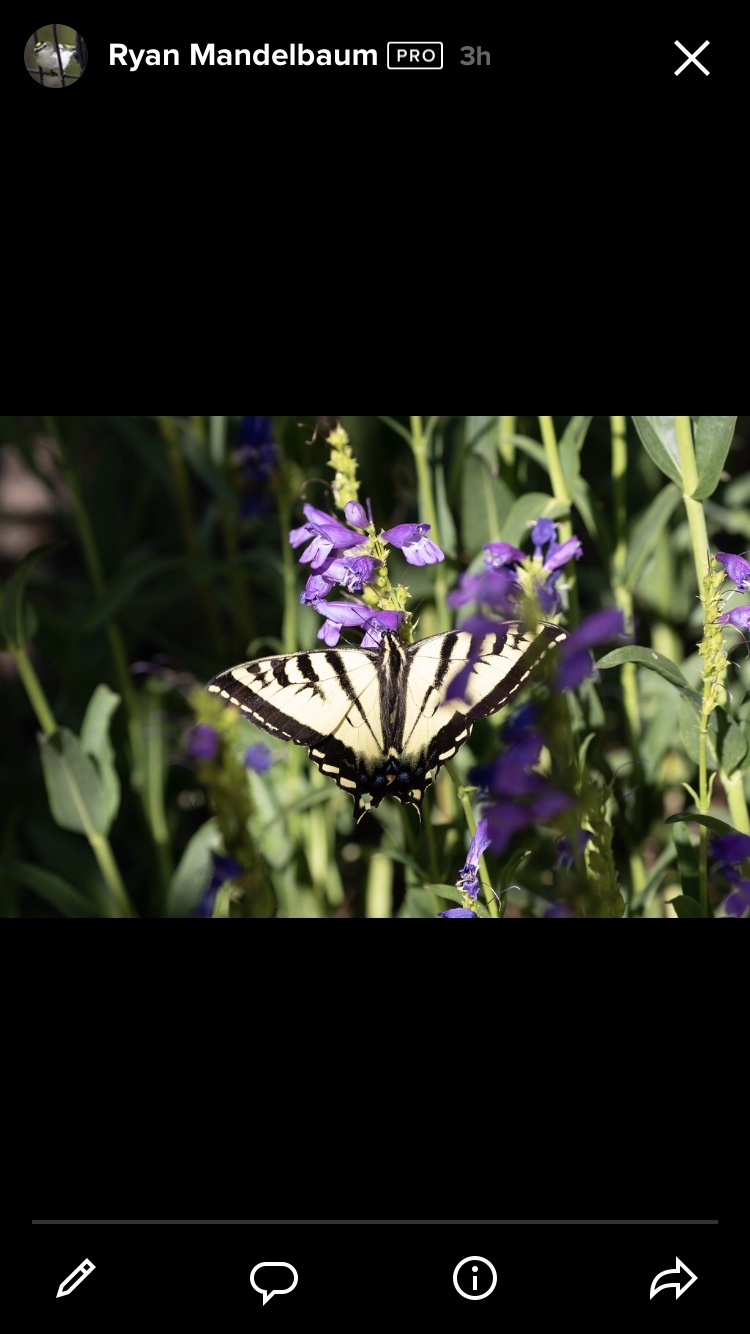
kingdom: Animalia
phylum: Arthropoda
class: Insecta
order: Lepidoptera
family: Papilionidae
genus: Papilio
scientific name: Papilio rutulus
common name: Western tiger swallowtail
